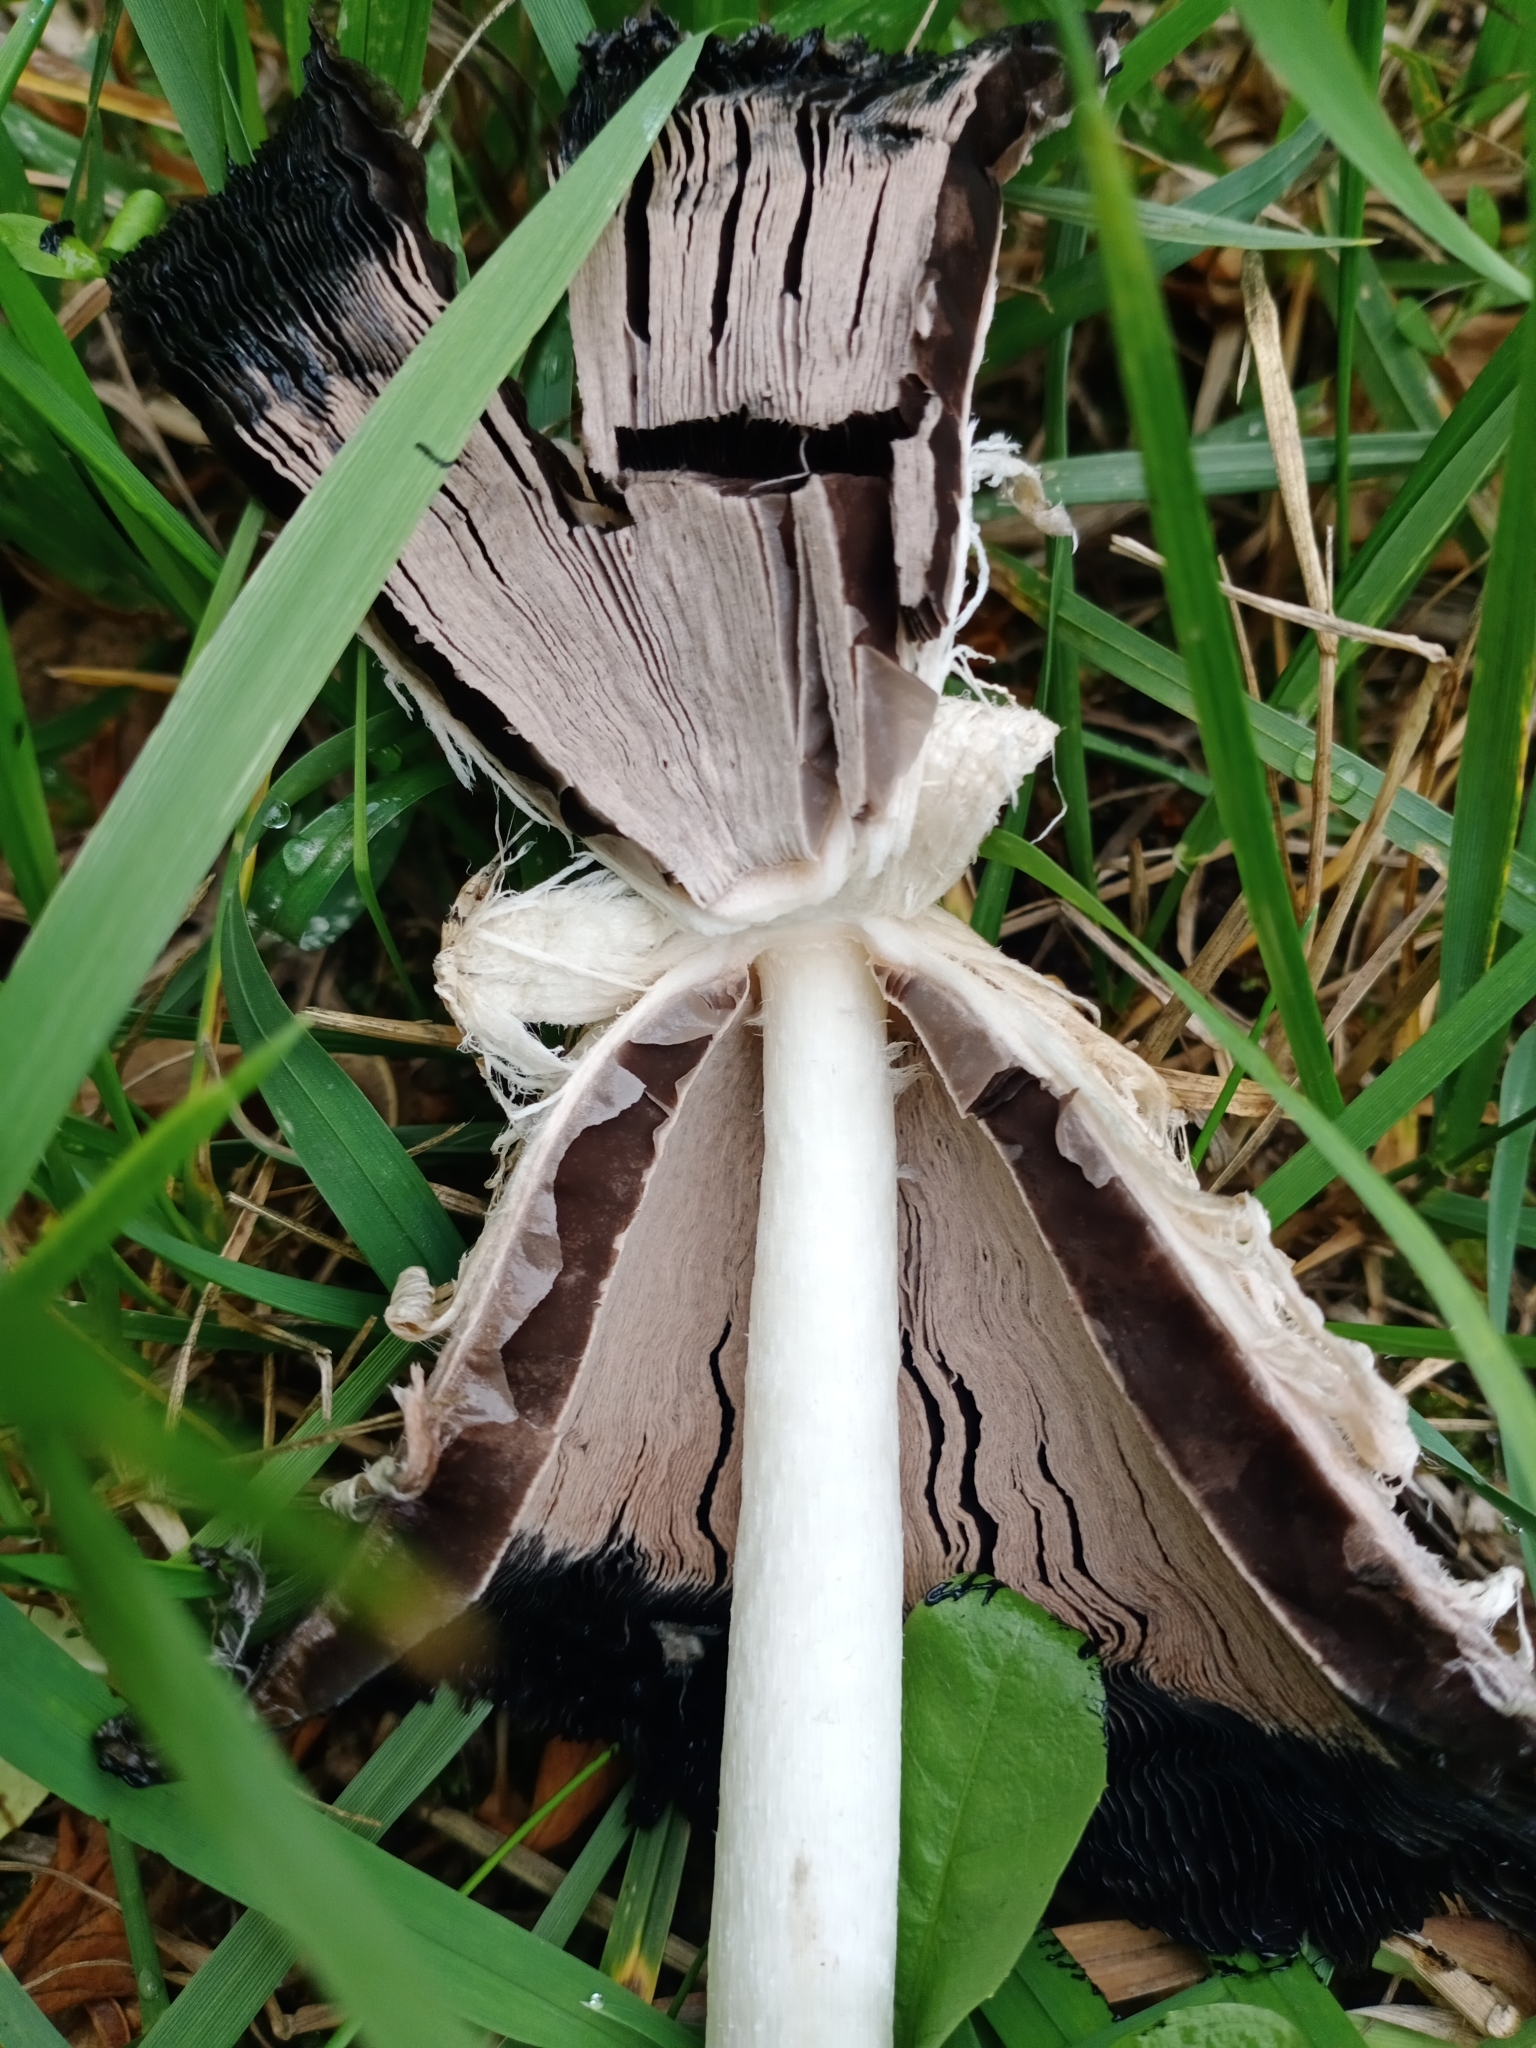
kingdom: Fungi
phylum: Basidiomycota
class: Agaricomycetes
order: Agaricales
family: Agaricaceae
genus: Coprinus
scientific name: Coprinus comatus
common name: Lawyer's wig
